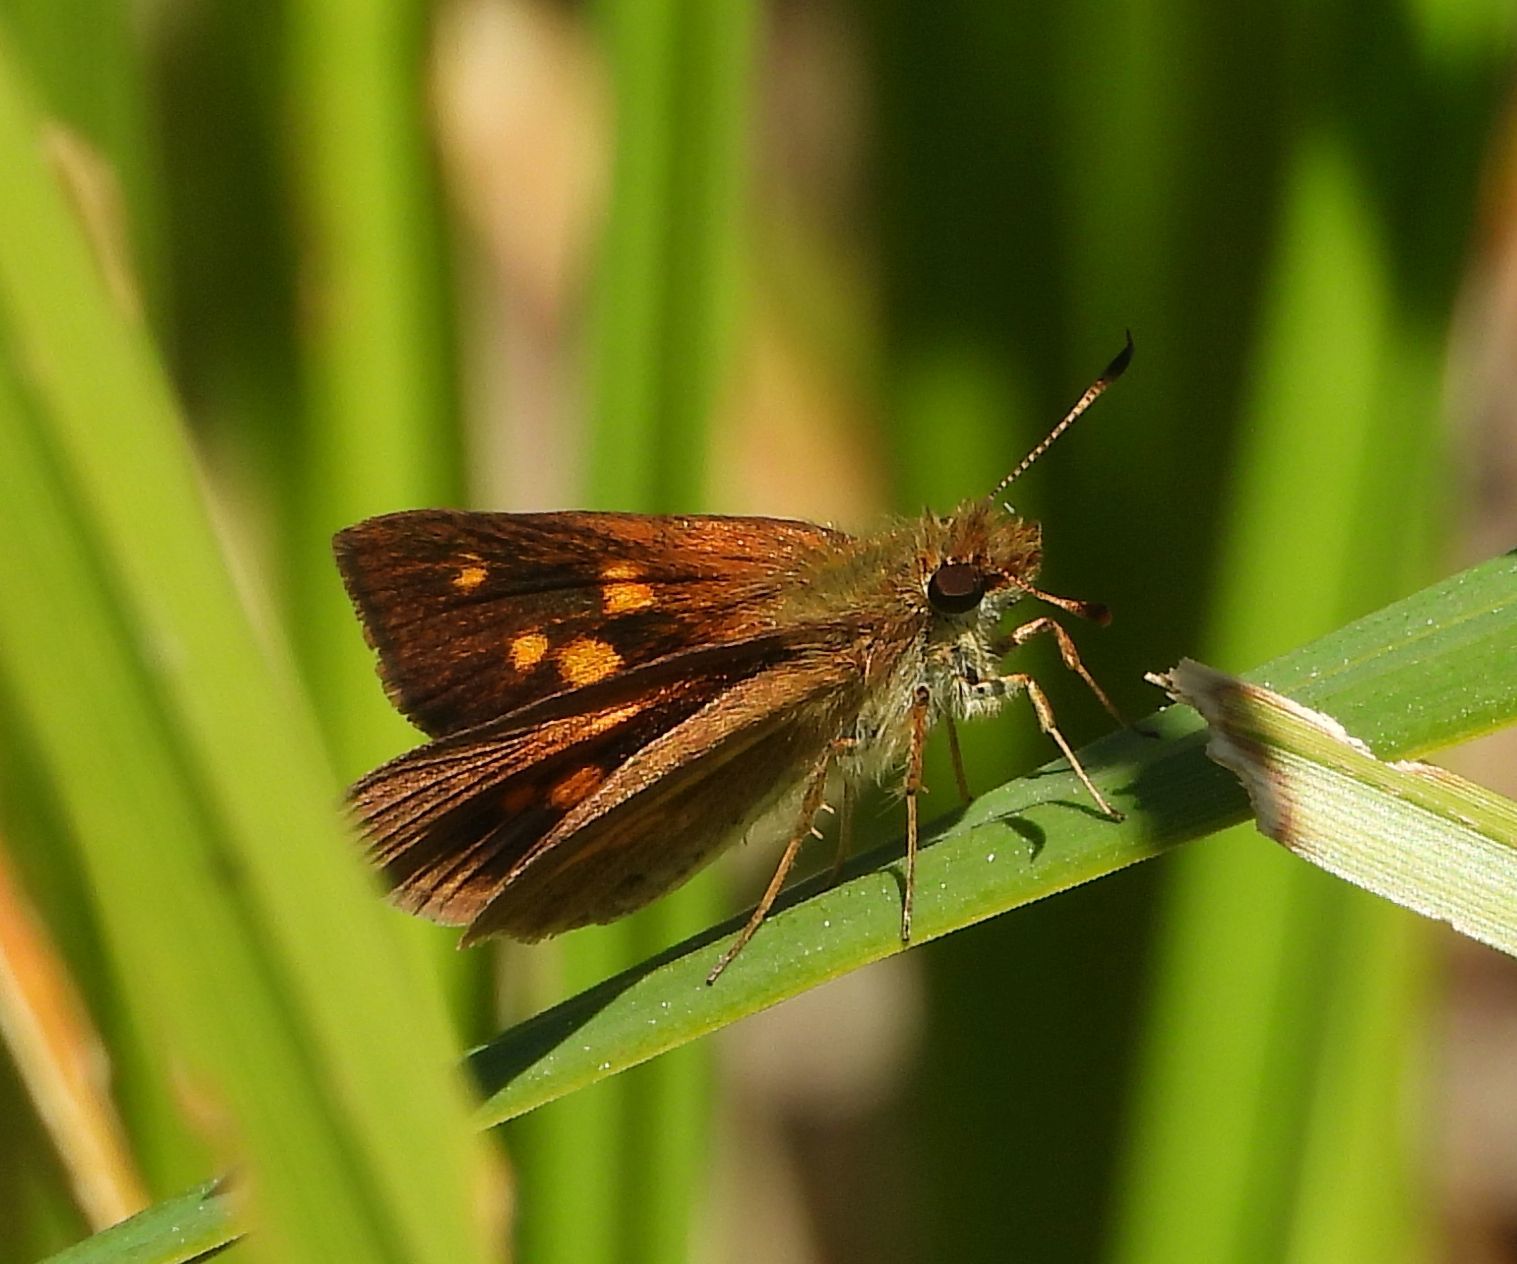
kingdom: Animalia
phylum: Arthropoda
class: Insecta
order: Lepidoptera
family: Hesperiidae
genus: Poanes
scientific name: Poanes viator
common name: Broad-winged skipper
